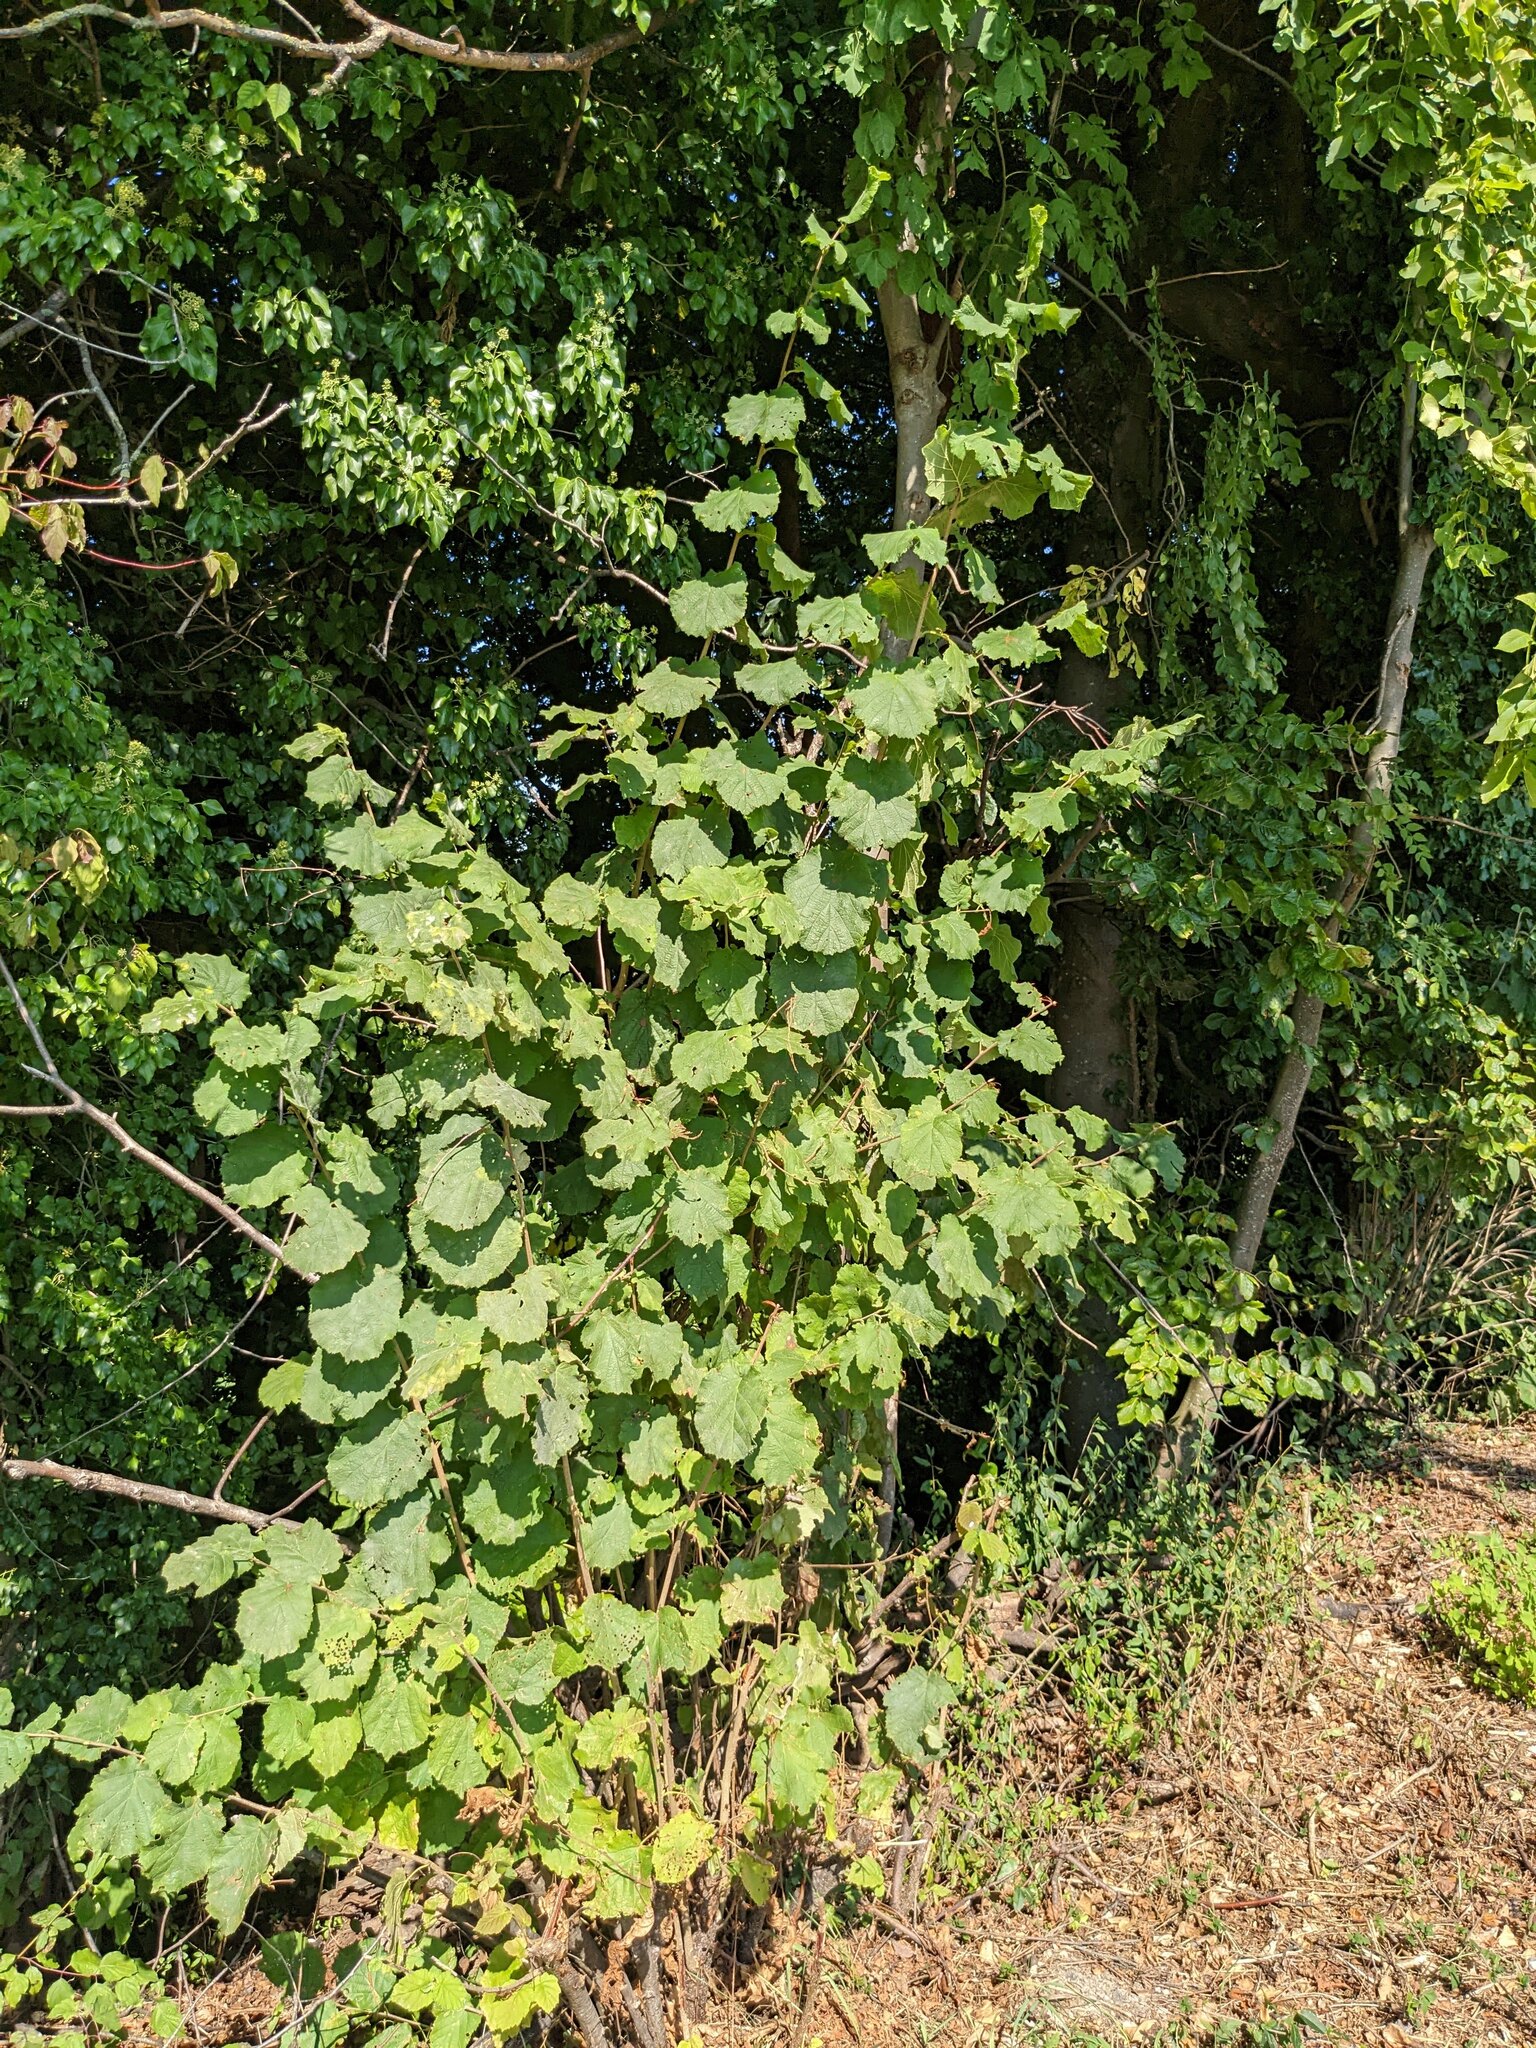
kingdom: Plantae
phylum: Tracheophyta
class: Magnoliopsida
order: Fagales
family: Betulaceae
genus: Corylus
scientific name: Corylus avellana
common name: European hazel
